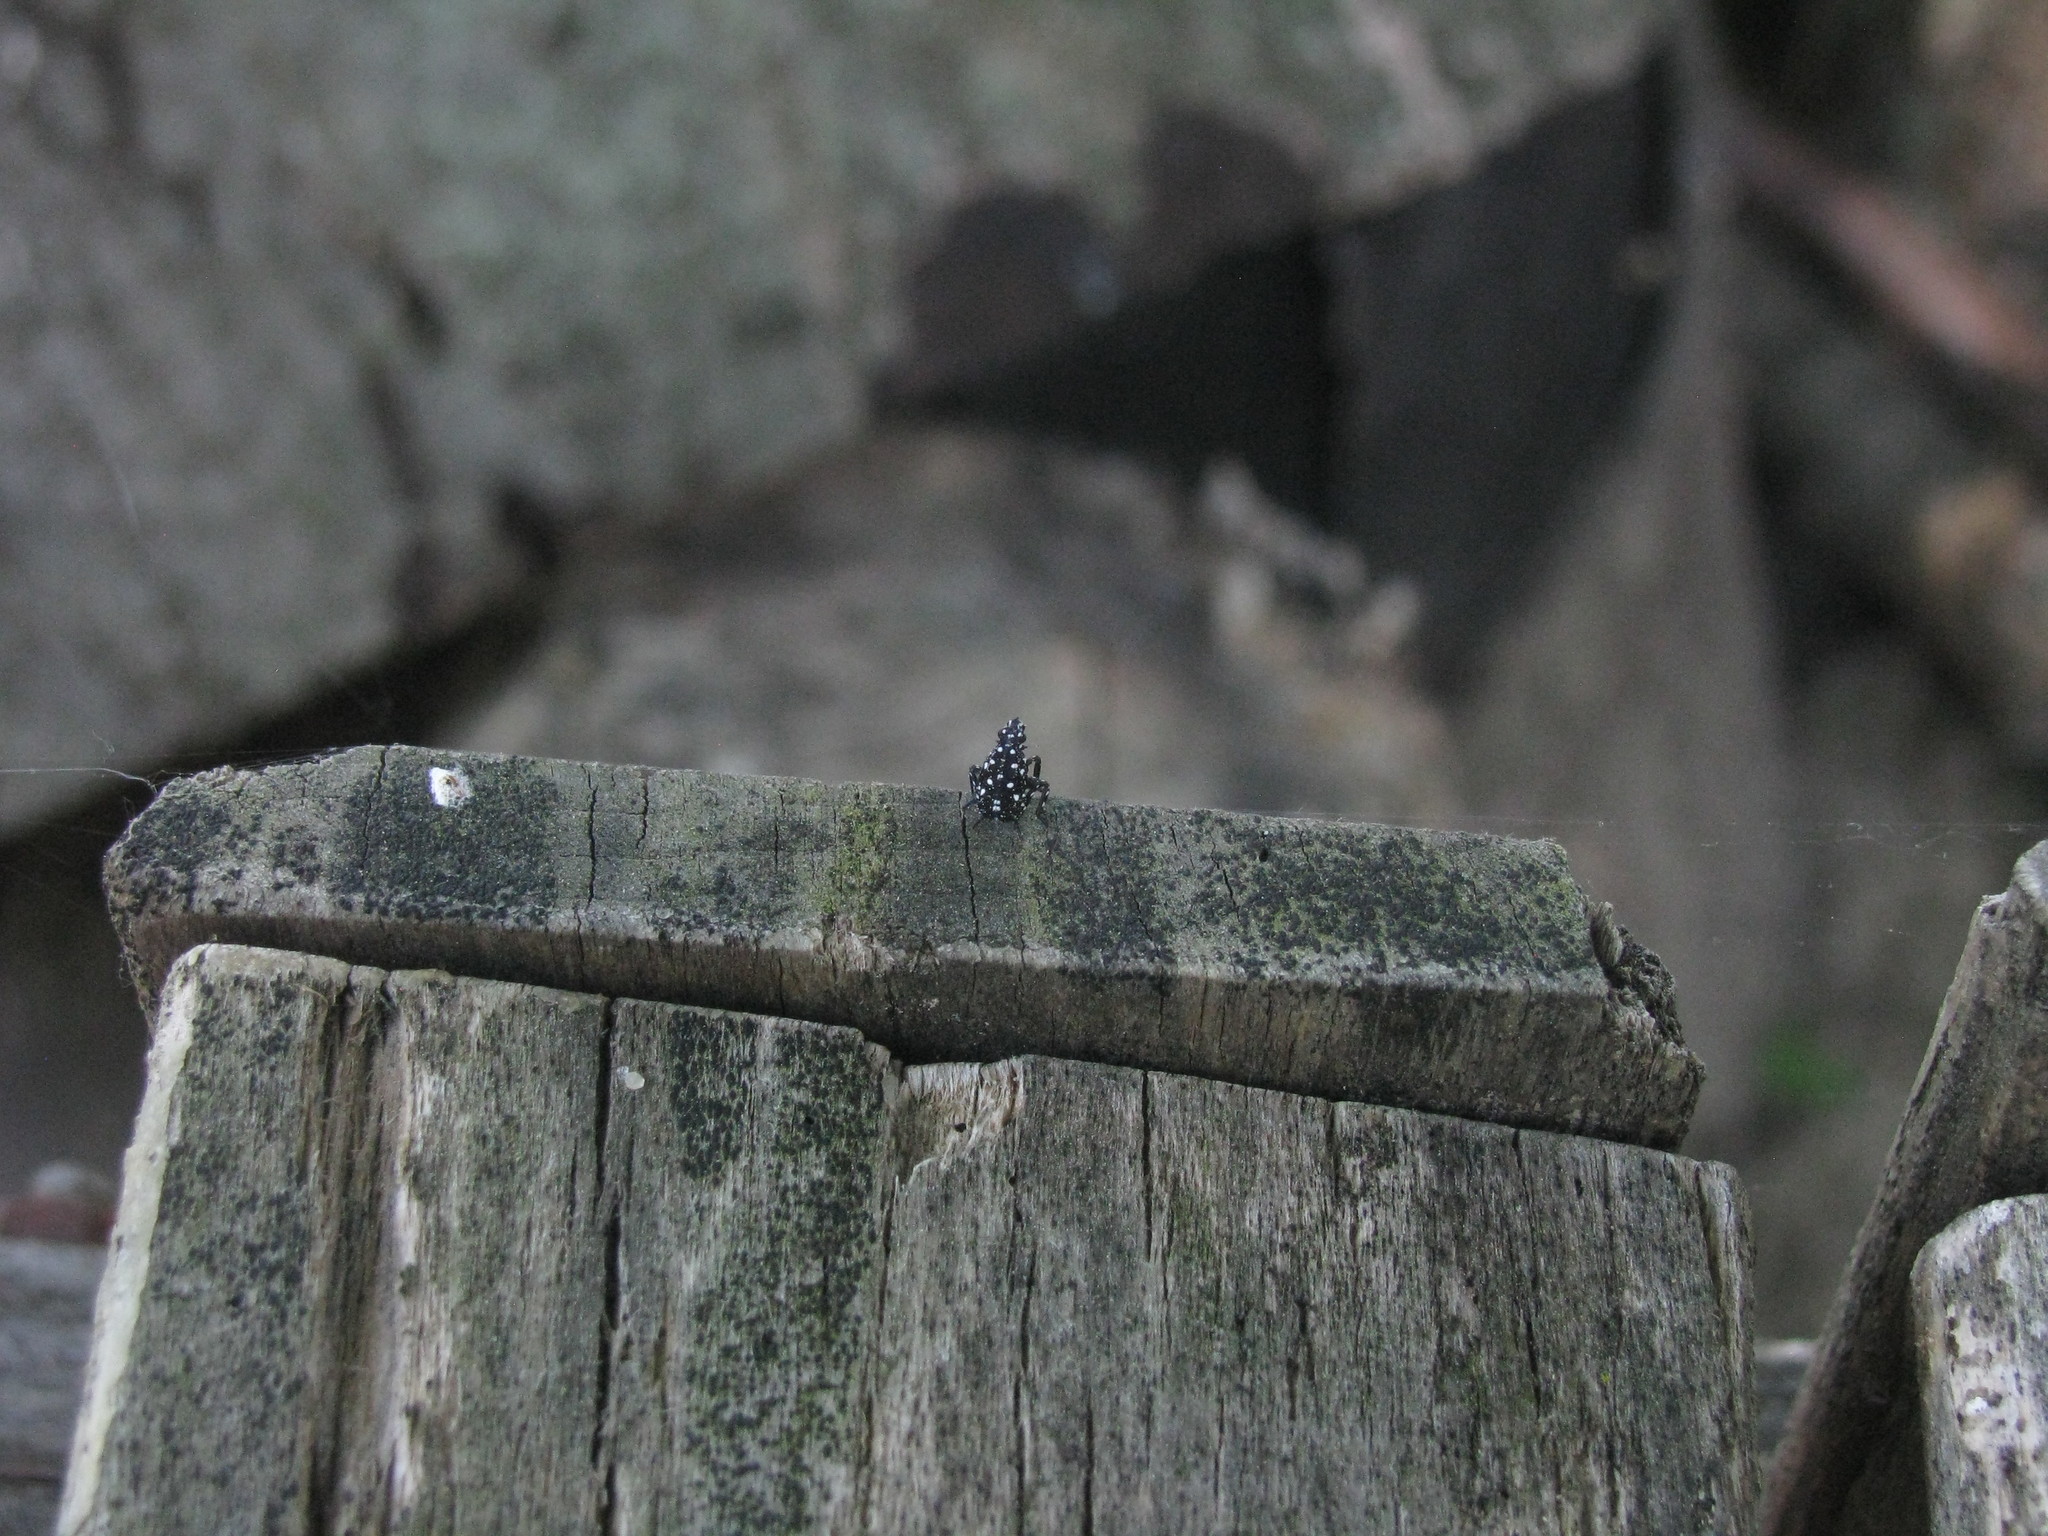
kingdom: Animalia
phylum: Arthropoda
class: Insecta
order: Hemiptera
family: Fulgoridae
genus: Lycorma
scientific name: Lycorma delicatula
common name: Spotted lanternfly
